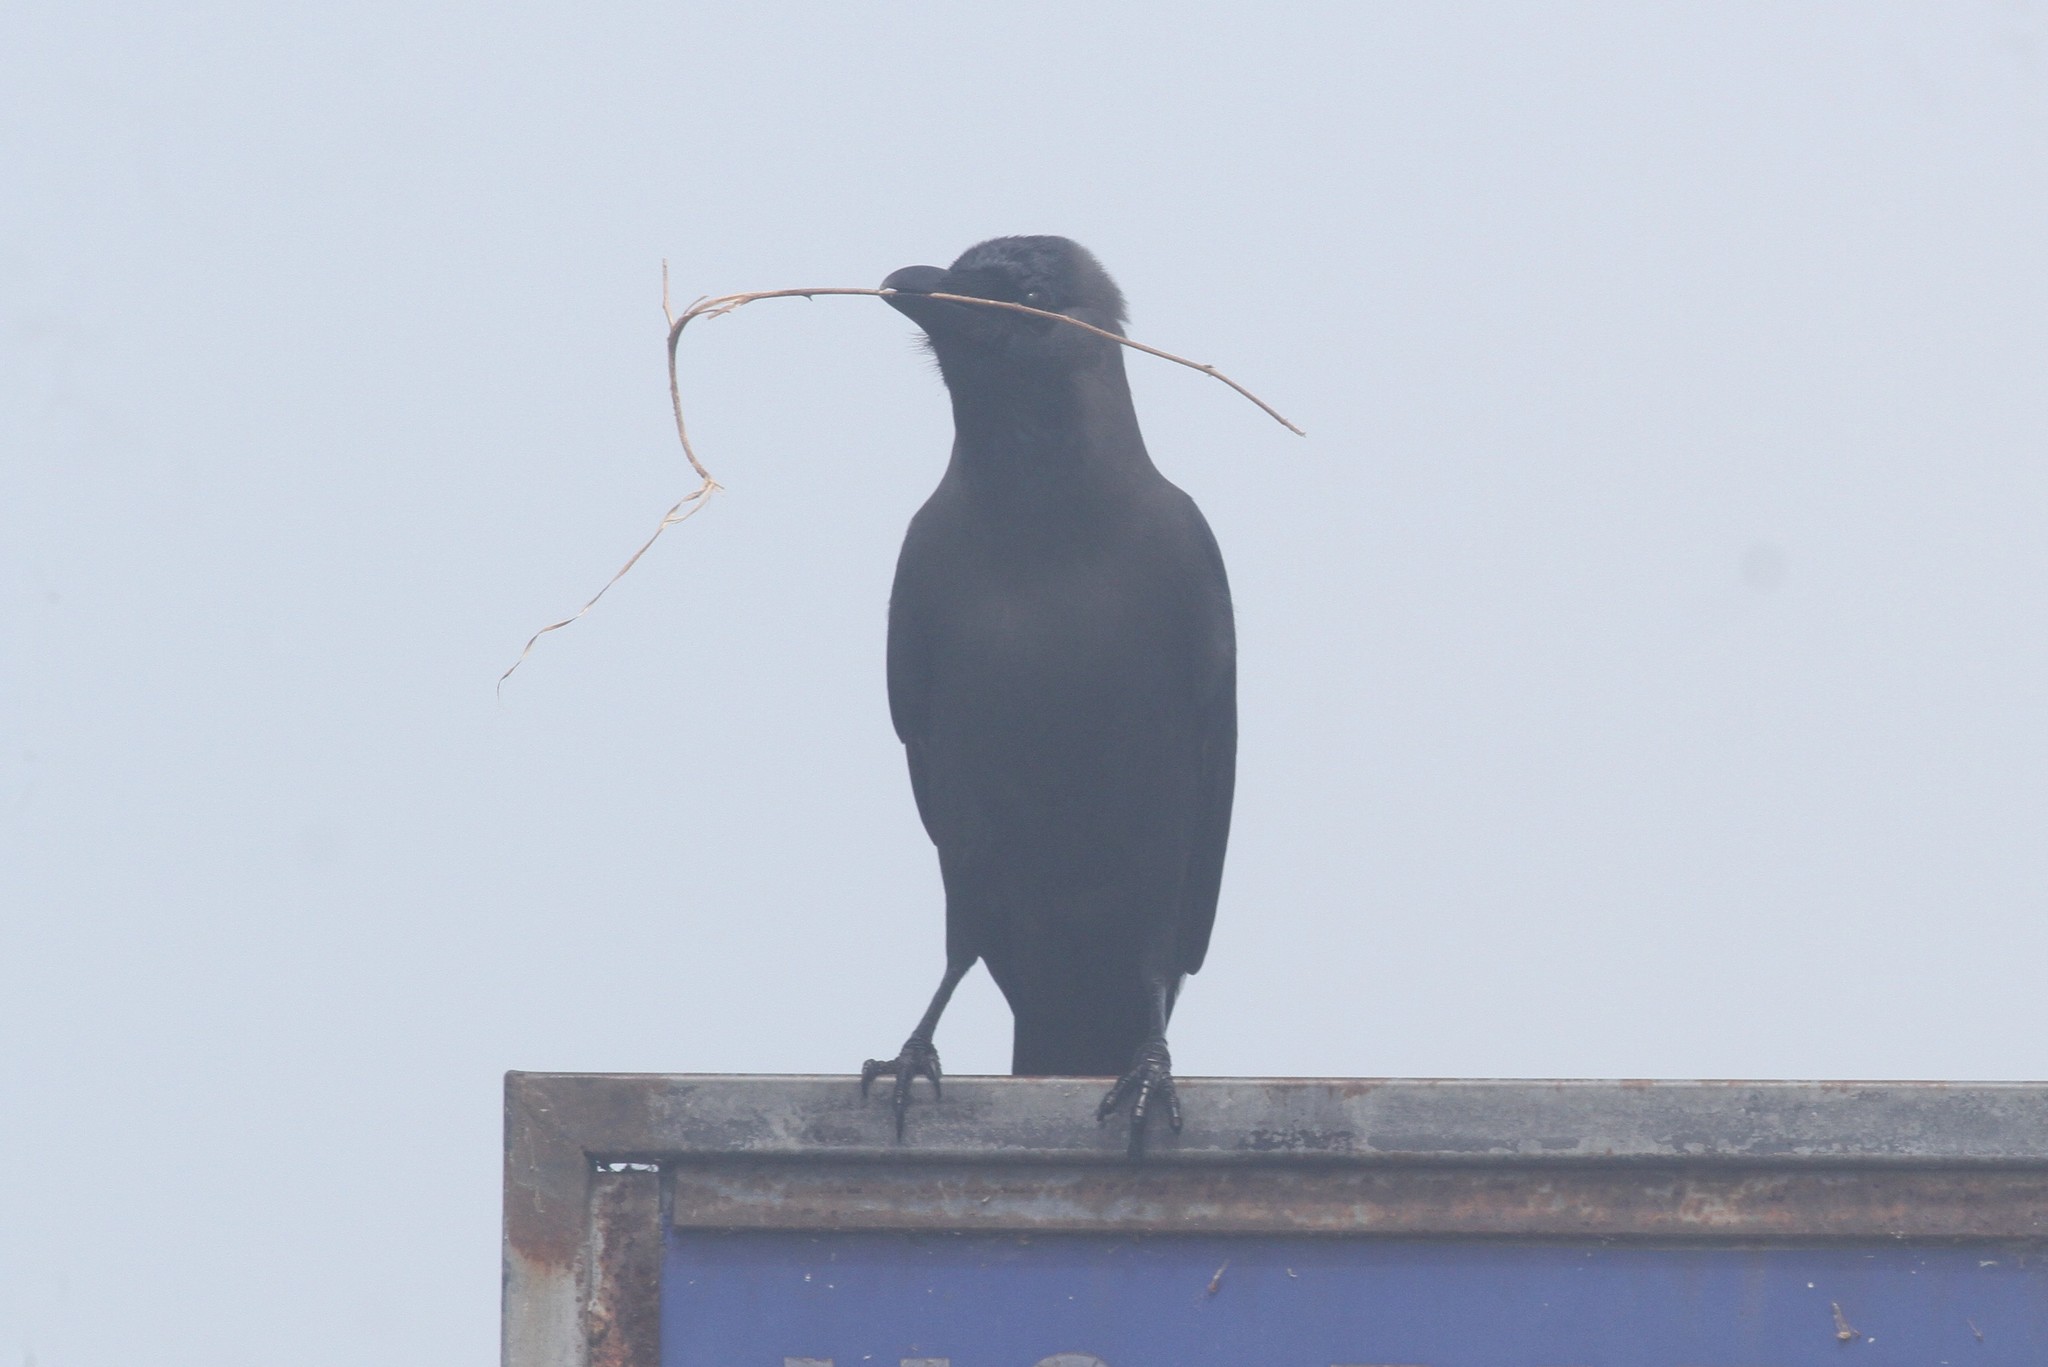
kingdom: Animalia
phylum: Chordata
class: Aves
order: Passeriformes
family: Corvidae
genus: Corvus
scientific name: Corvus splendens
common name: House crow
